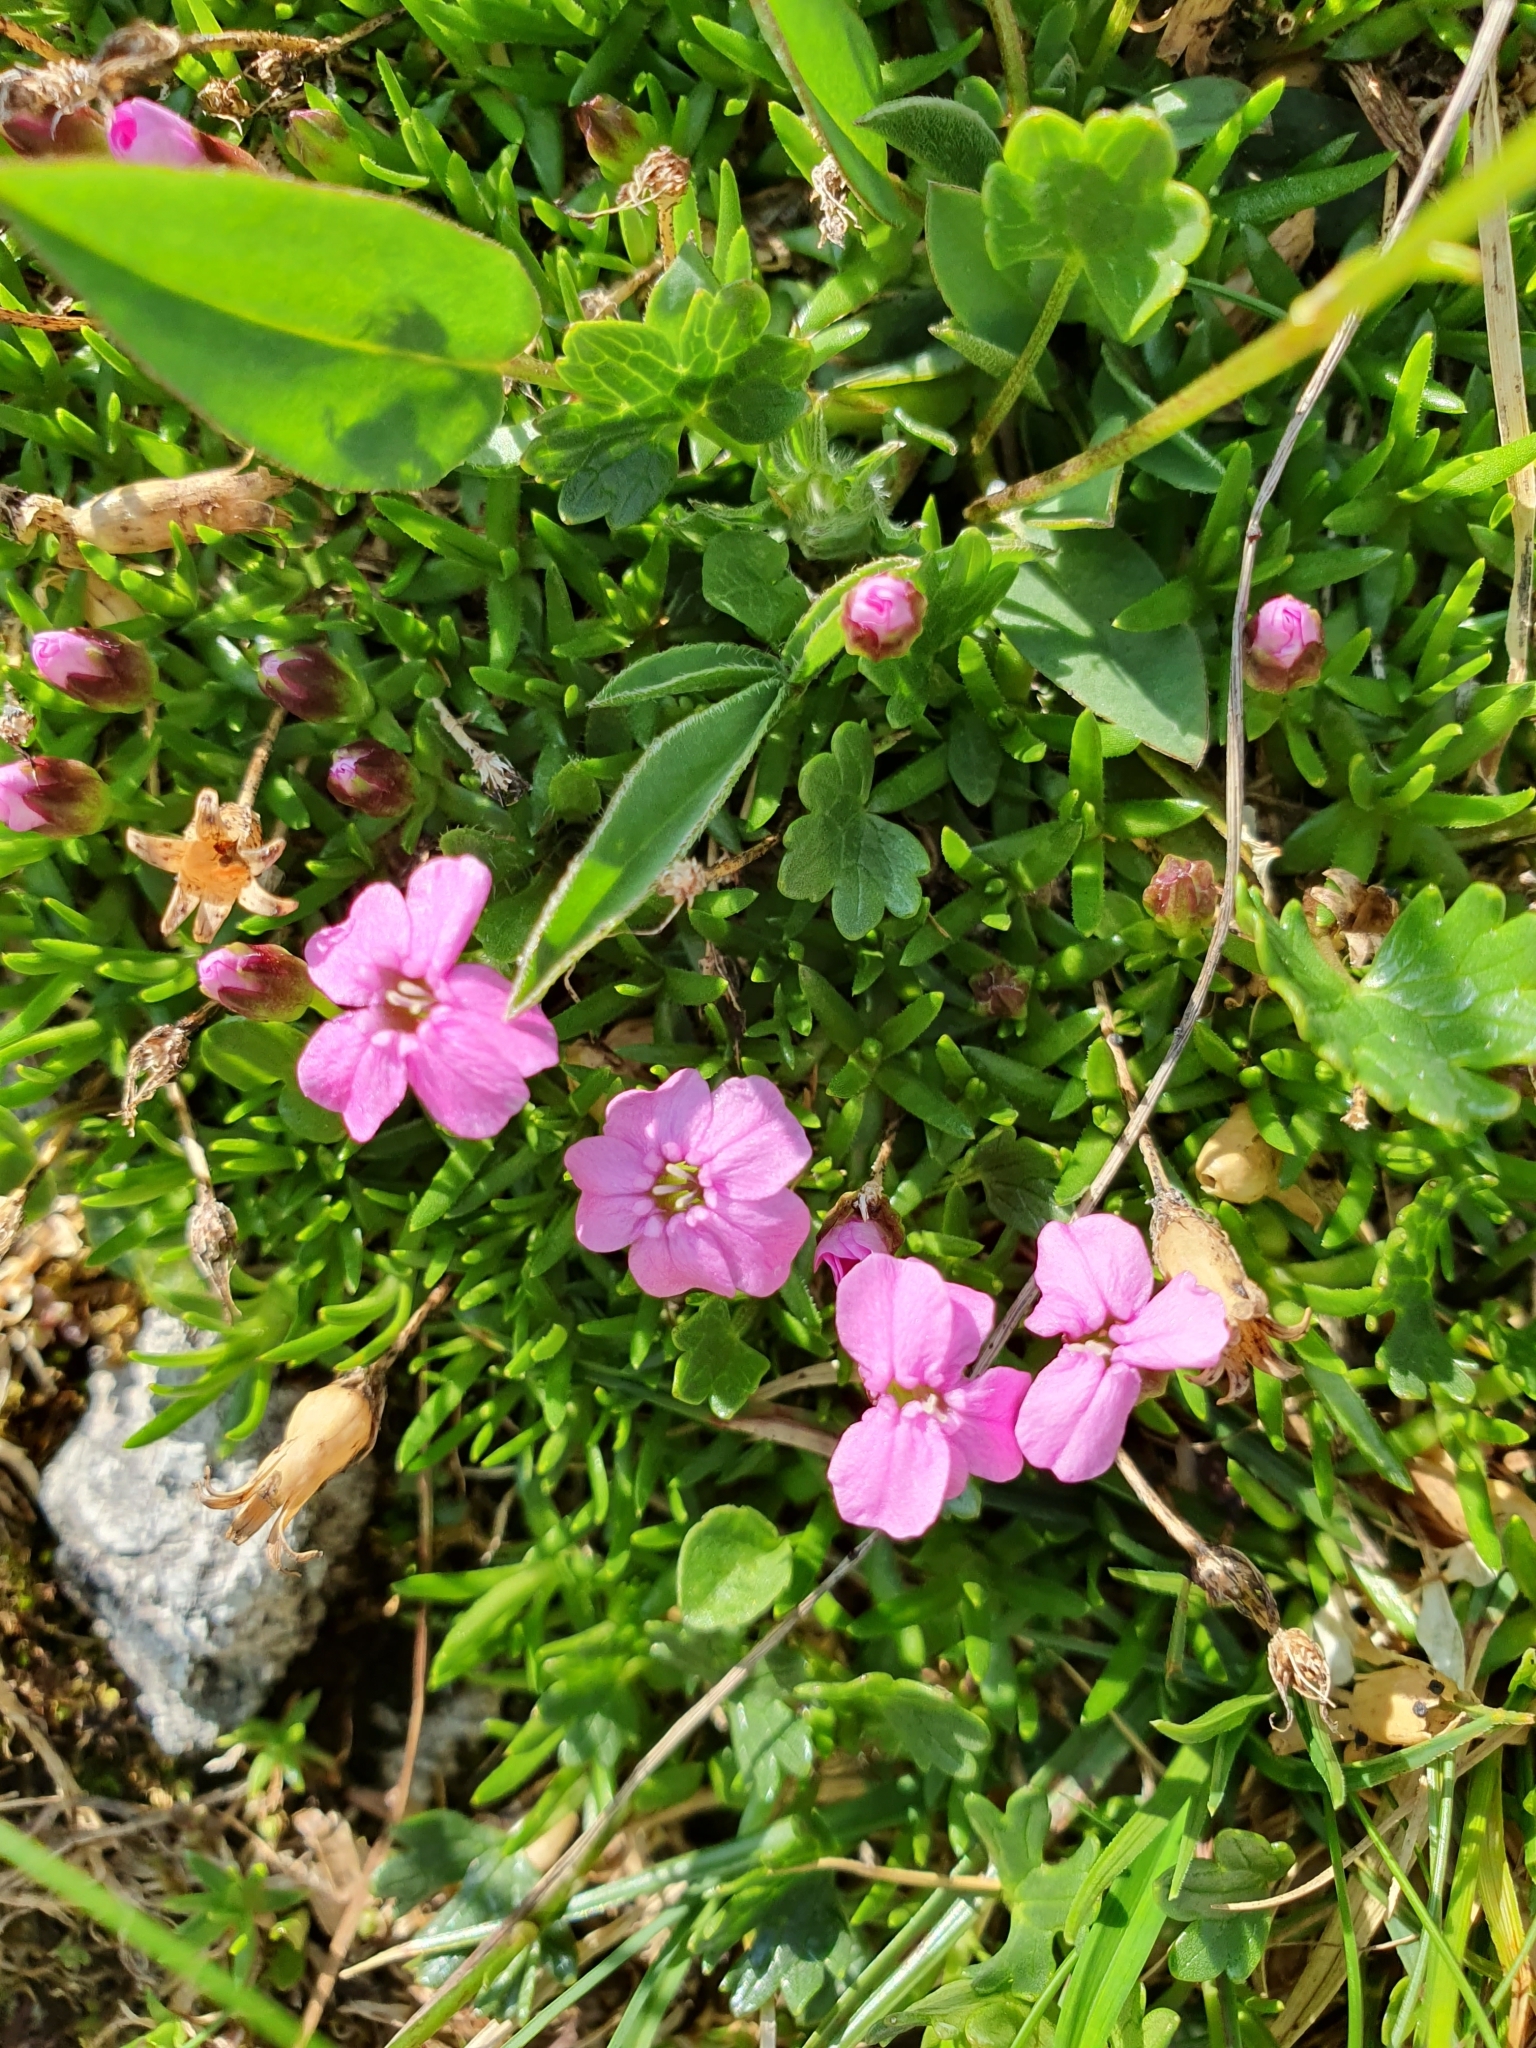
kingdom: Plantae
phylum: Tracheophyta
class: Magnoliopsida
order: Caryophyllales
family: Caryophyllaceae
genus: Silene
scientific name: Silene acaulis
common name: Moss campion
